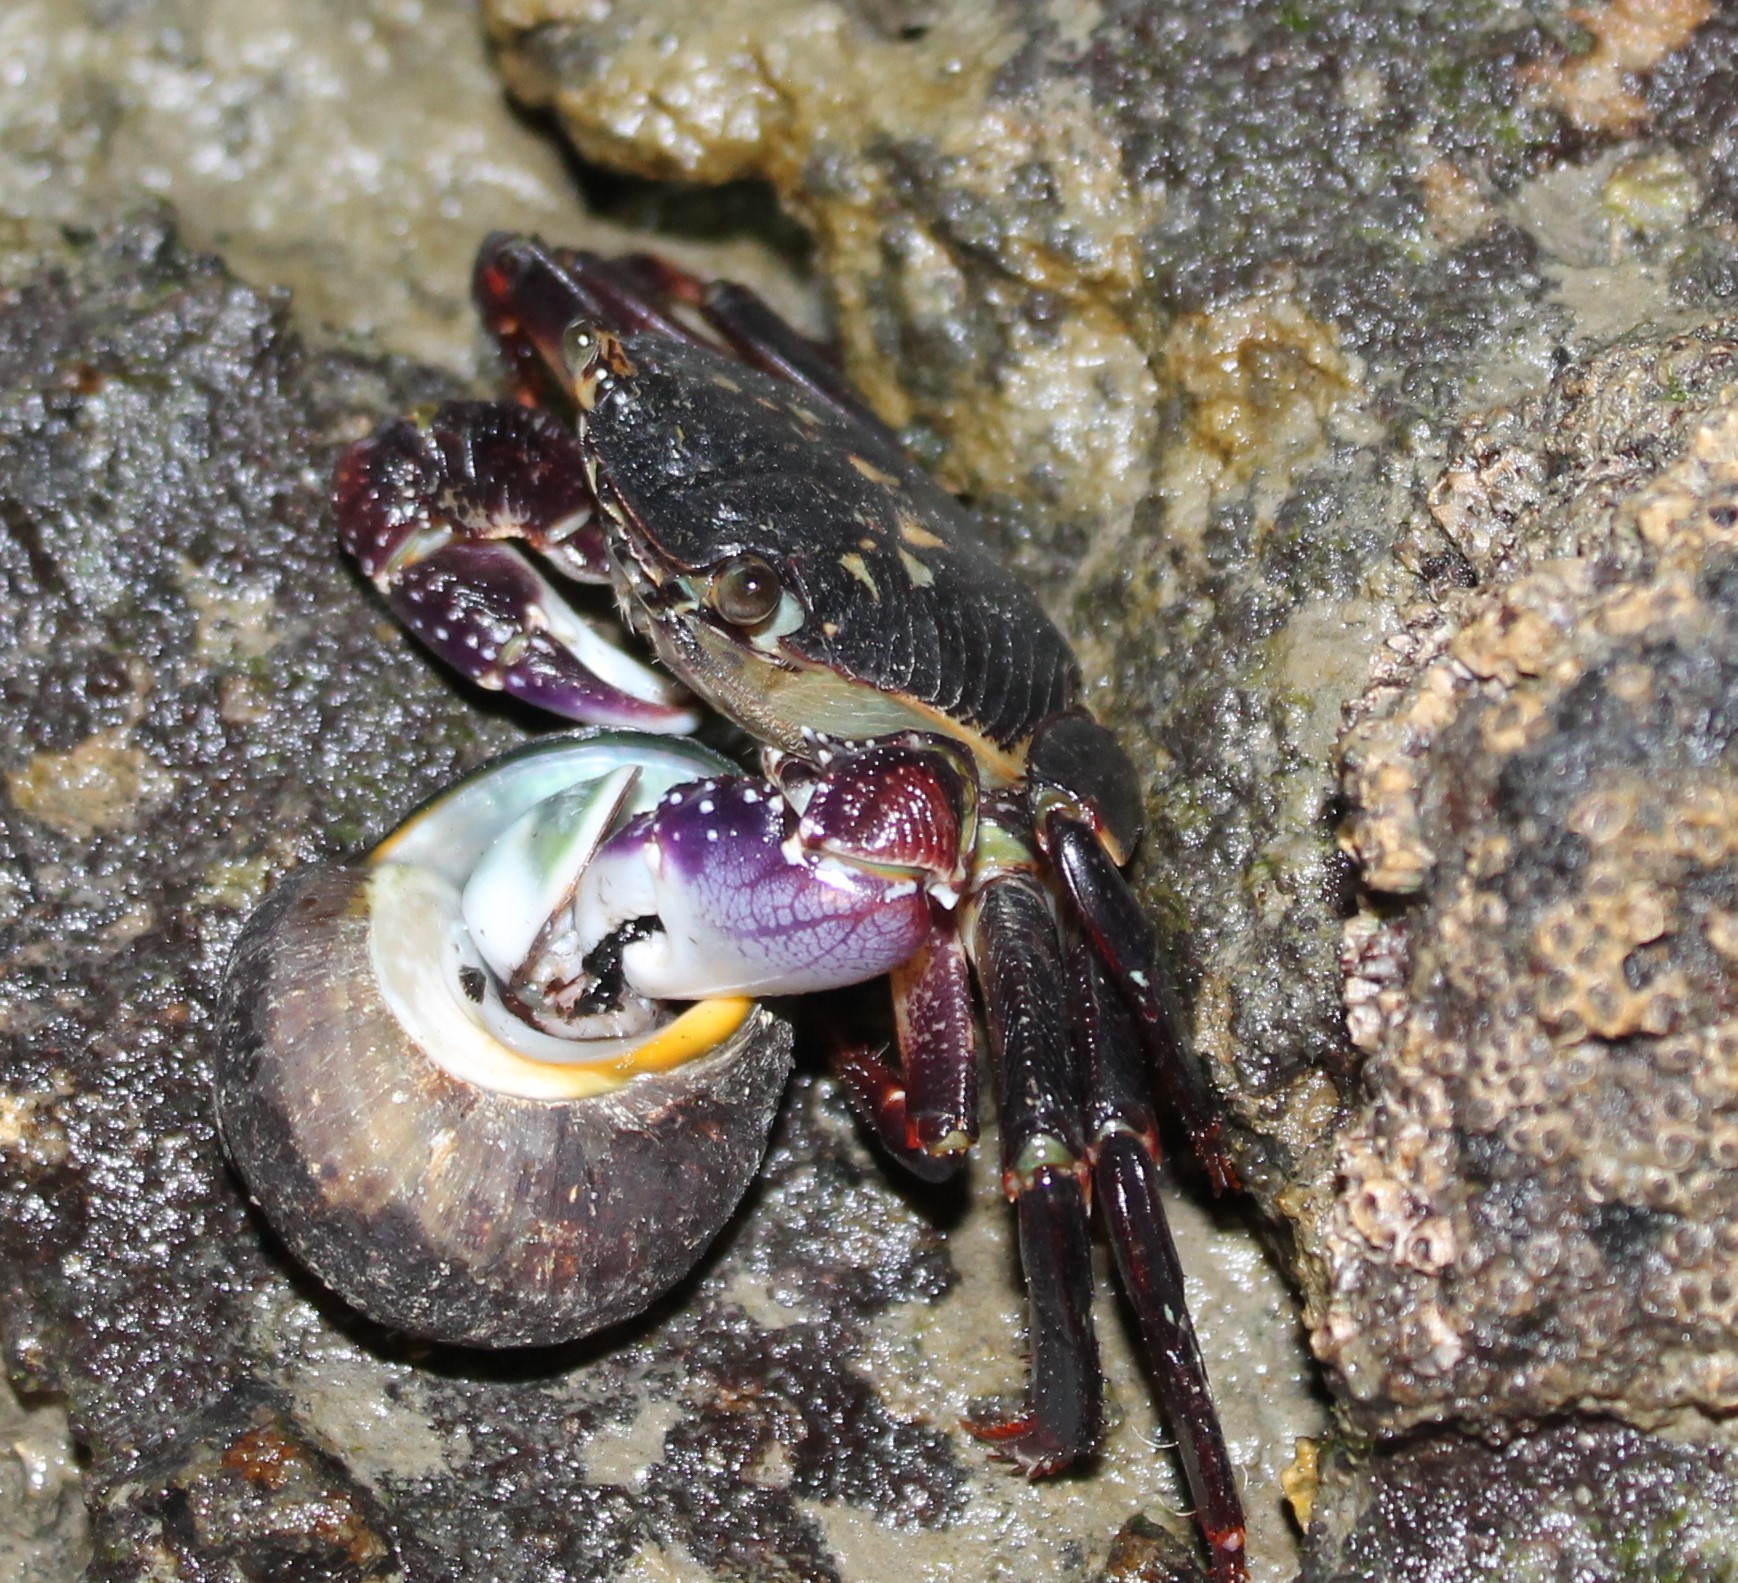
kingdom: Animalia
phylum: Arthropoda
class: Malacostraca
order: Decapoda
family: Grapsidae
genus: Leptograpsus
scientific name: Leptograpsus variegatus
